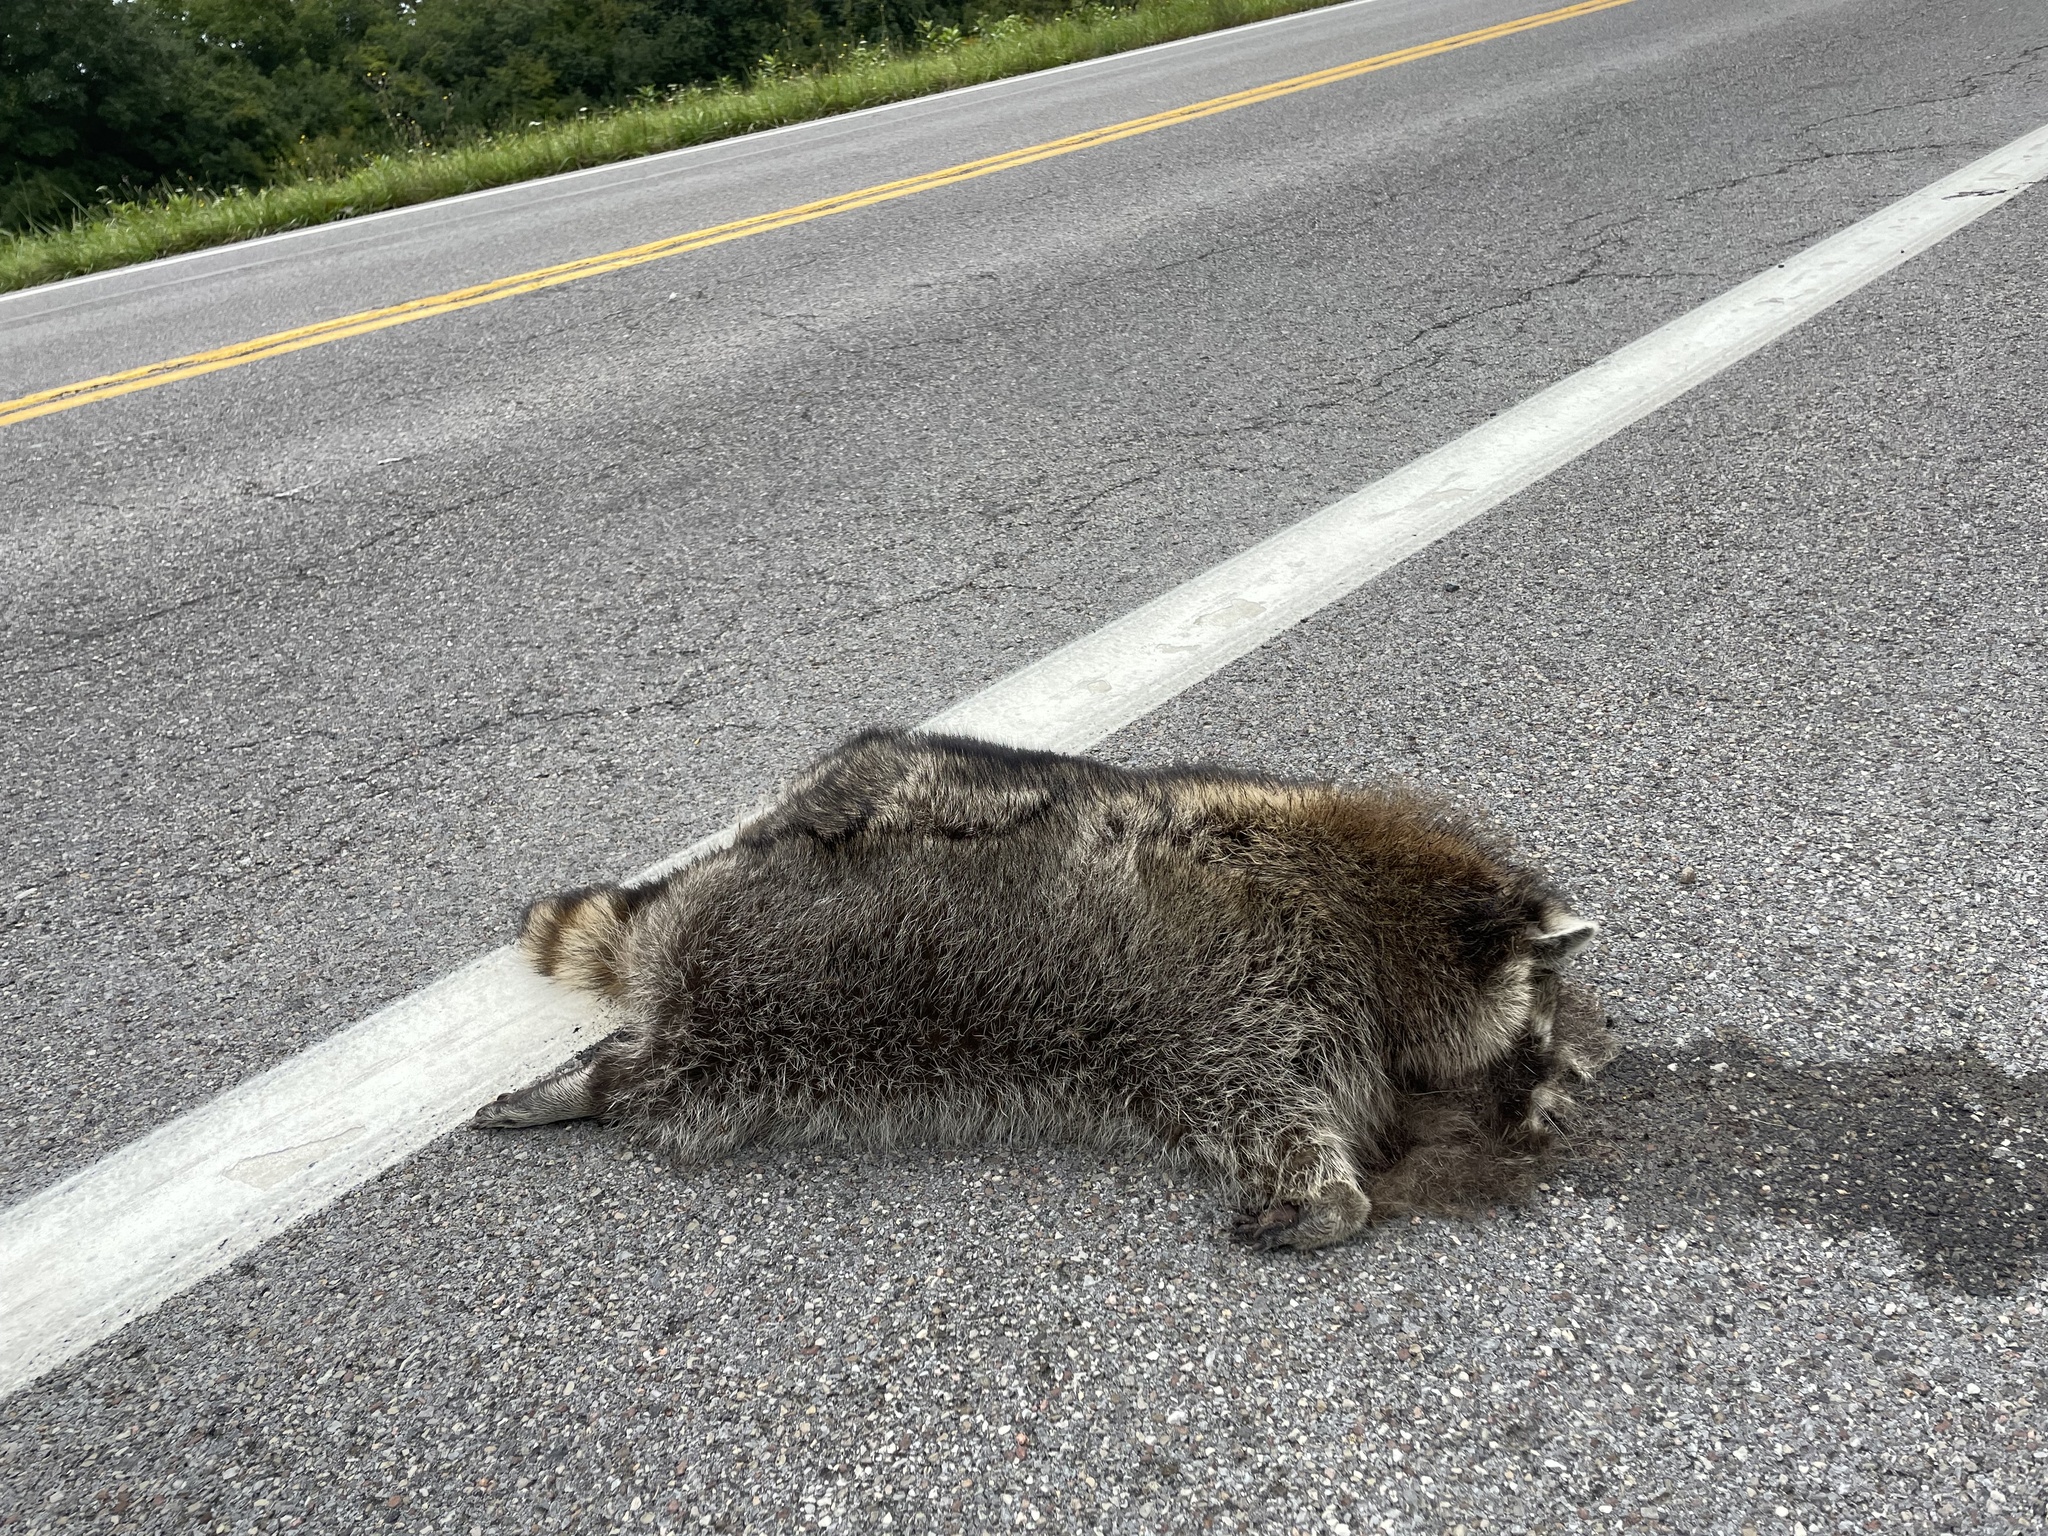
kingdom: Animalia
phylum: Chordata
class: Mammalia
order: Carnivora
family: Procyonidae
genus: Procyon
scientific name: Procyon lotor
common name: Raccoon
